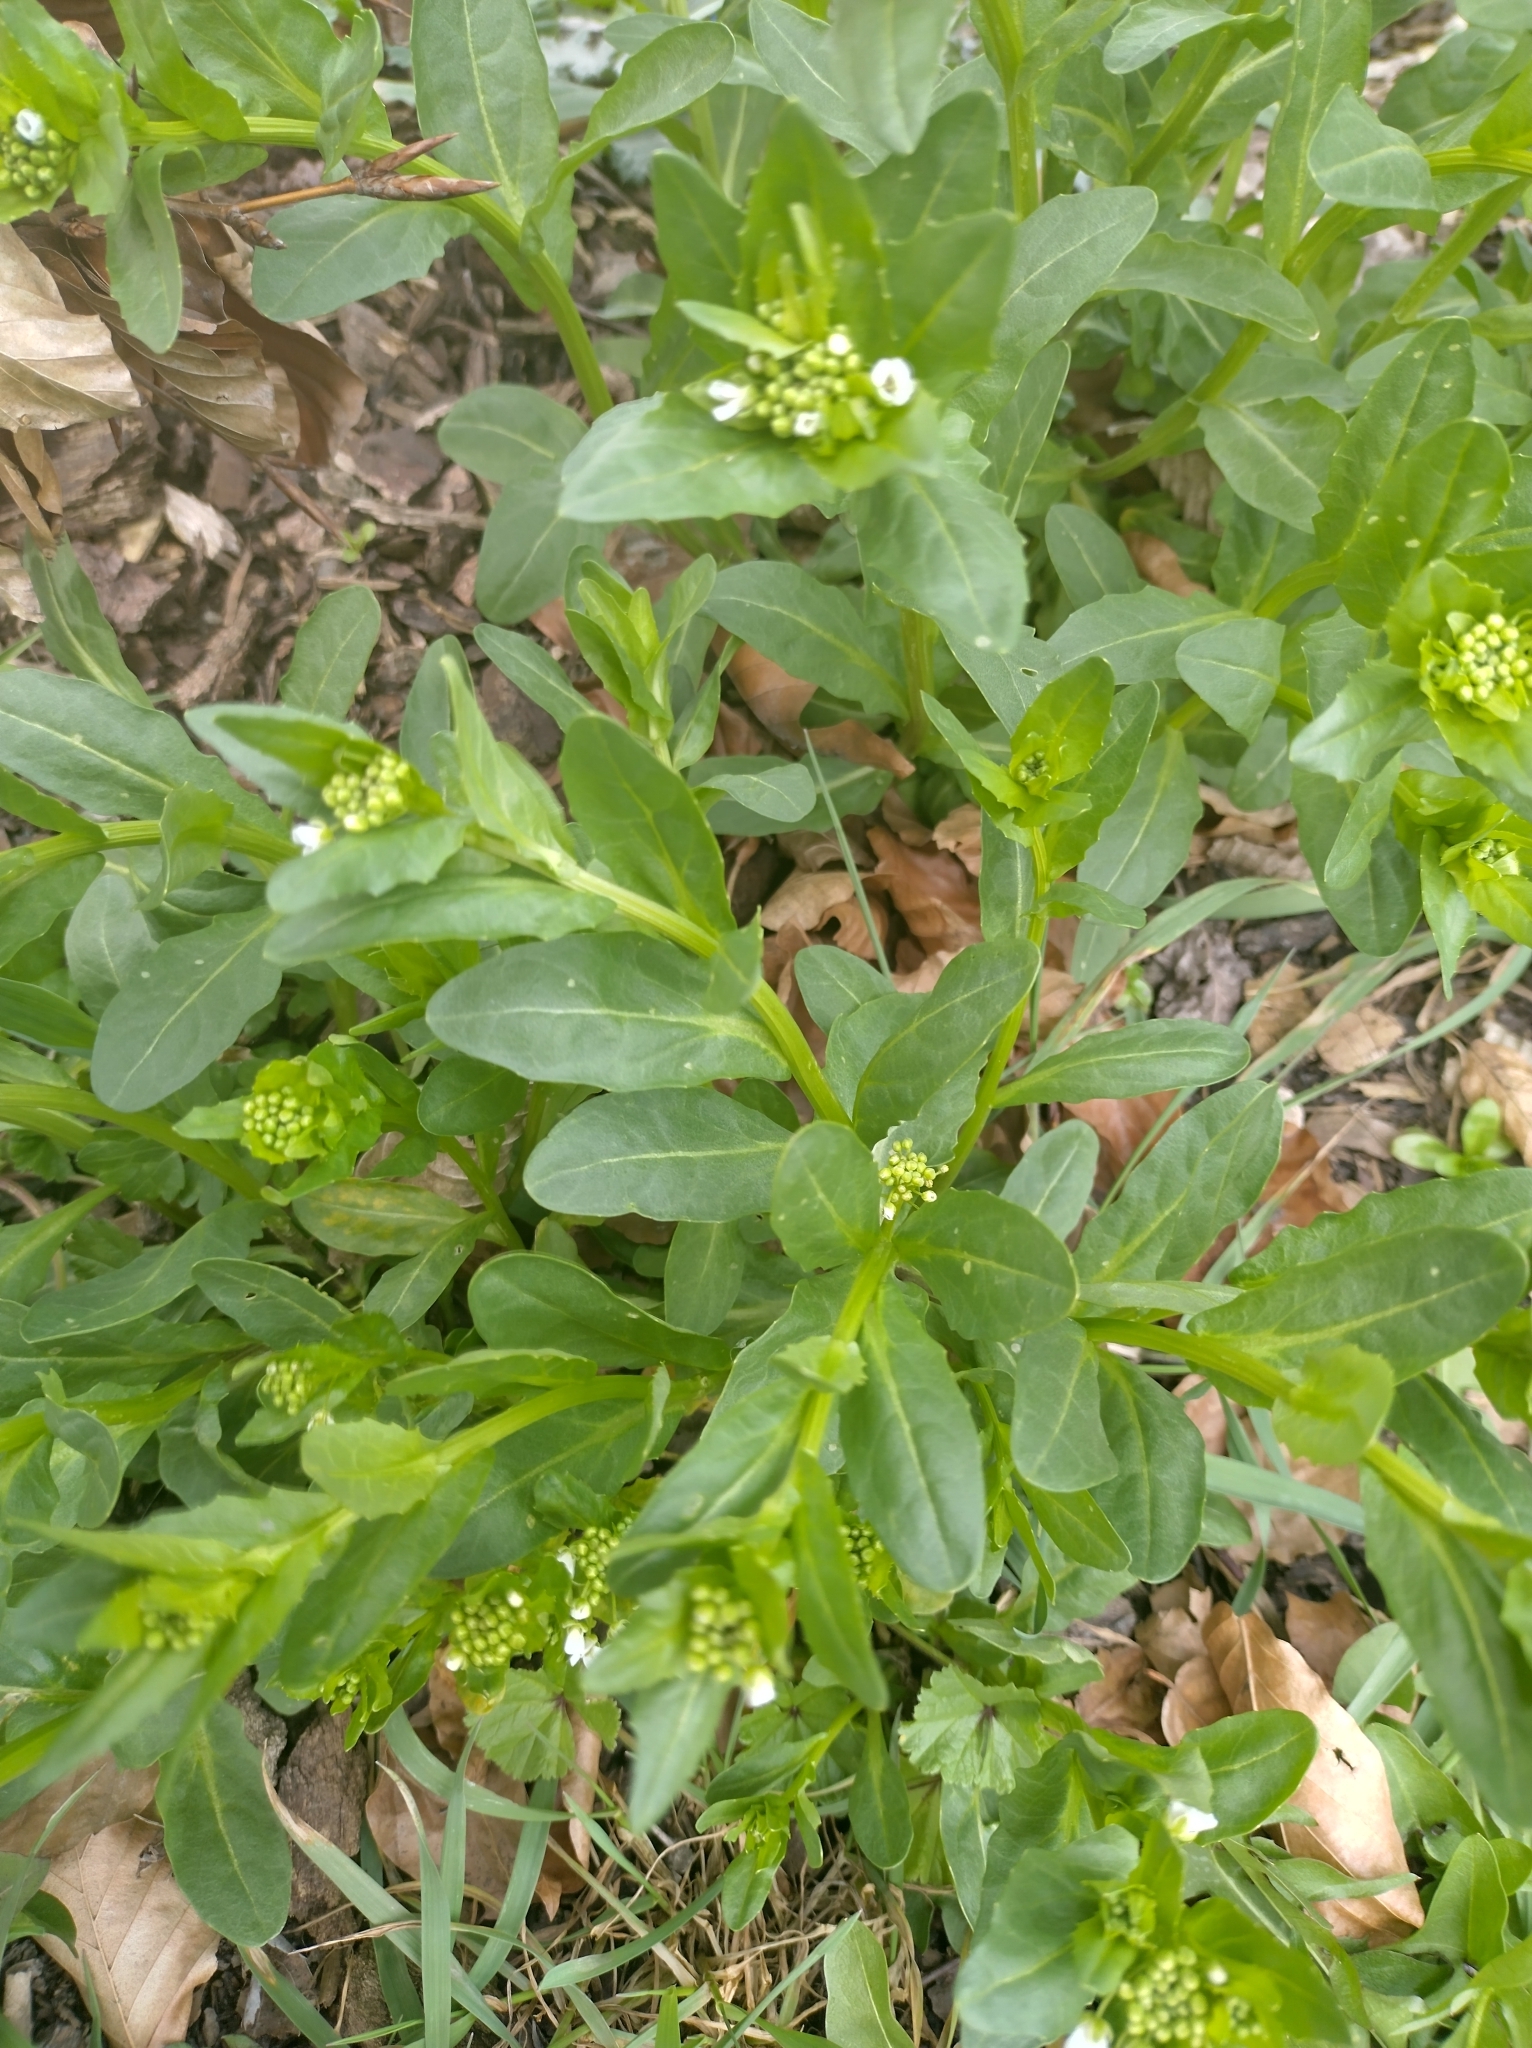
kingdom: Plantae
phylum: Tracheophyta
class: Magnoliopsida
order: Brassicales
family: Brassicaceae
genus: Thlaspi
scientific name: Thlaspi arvense
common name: Field pennycress
